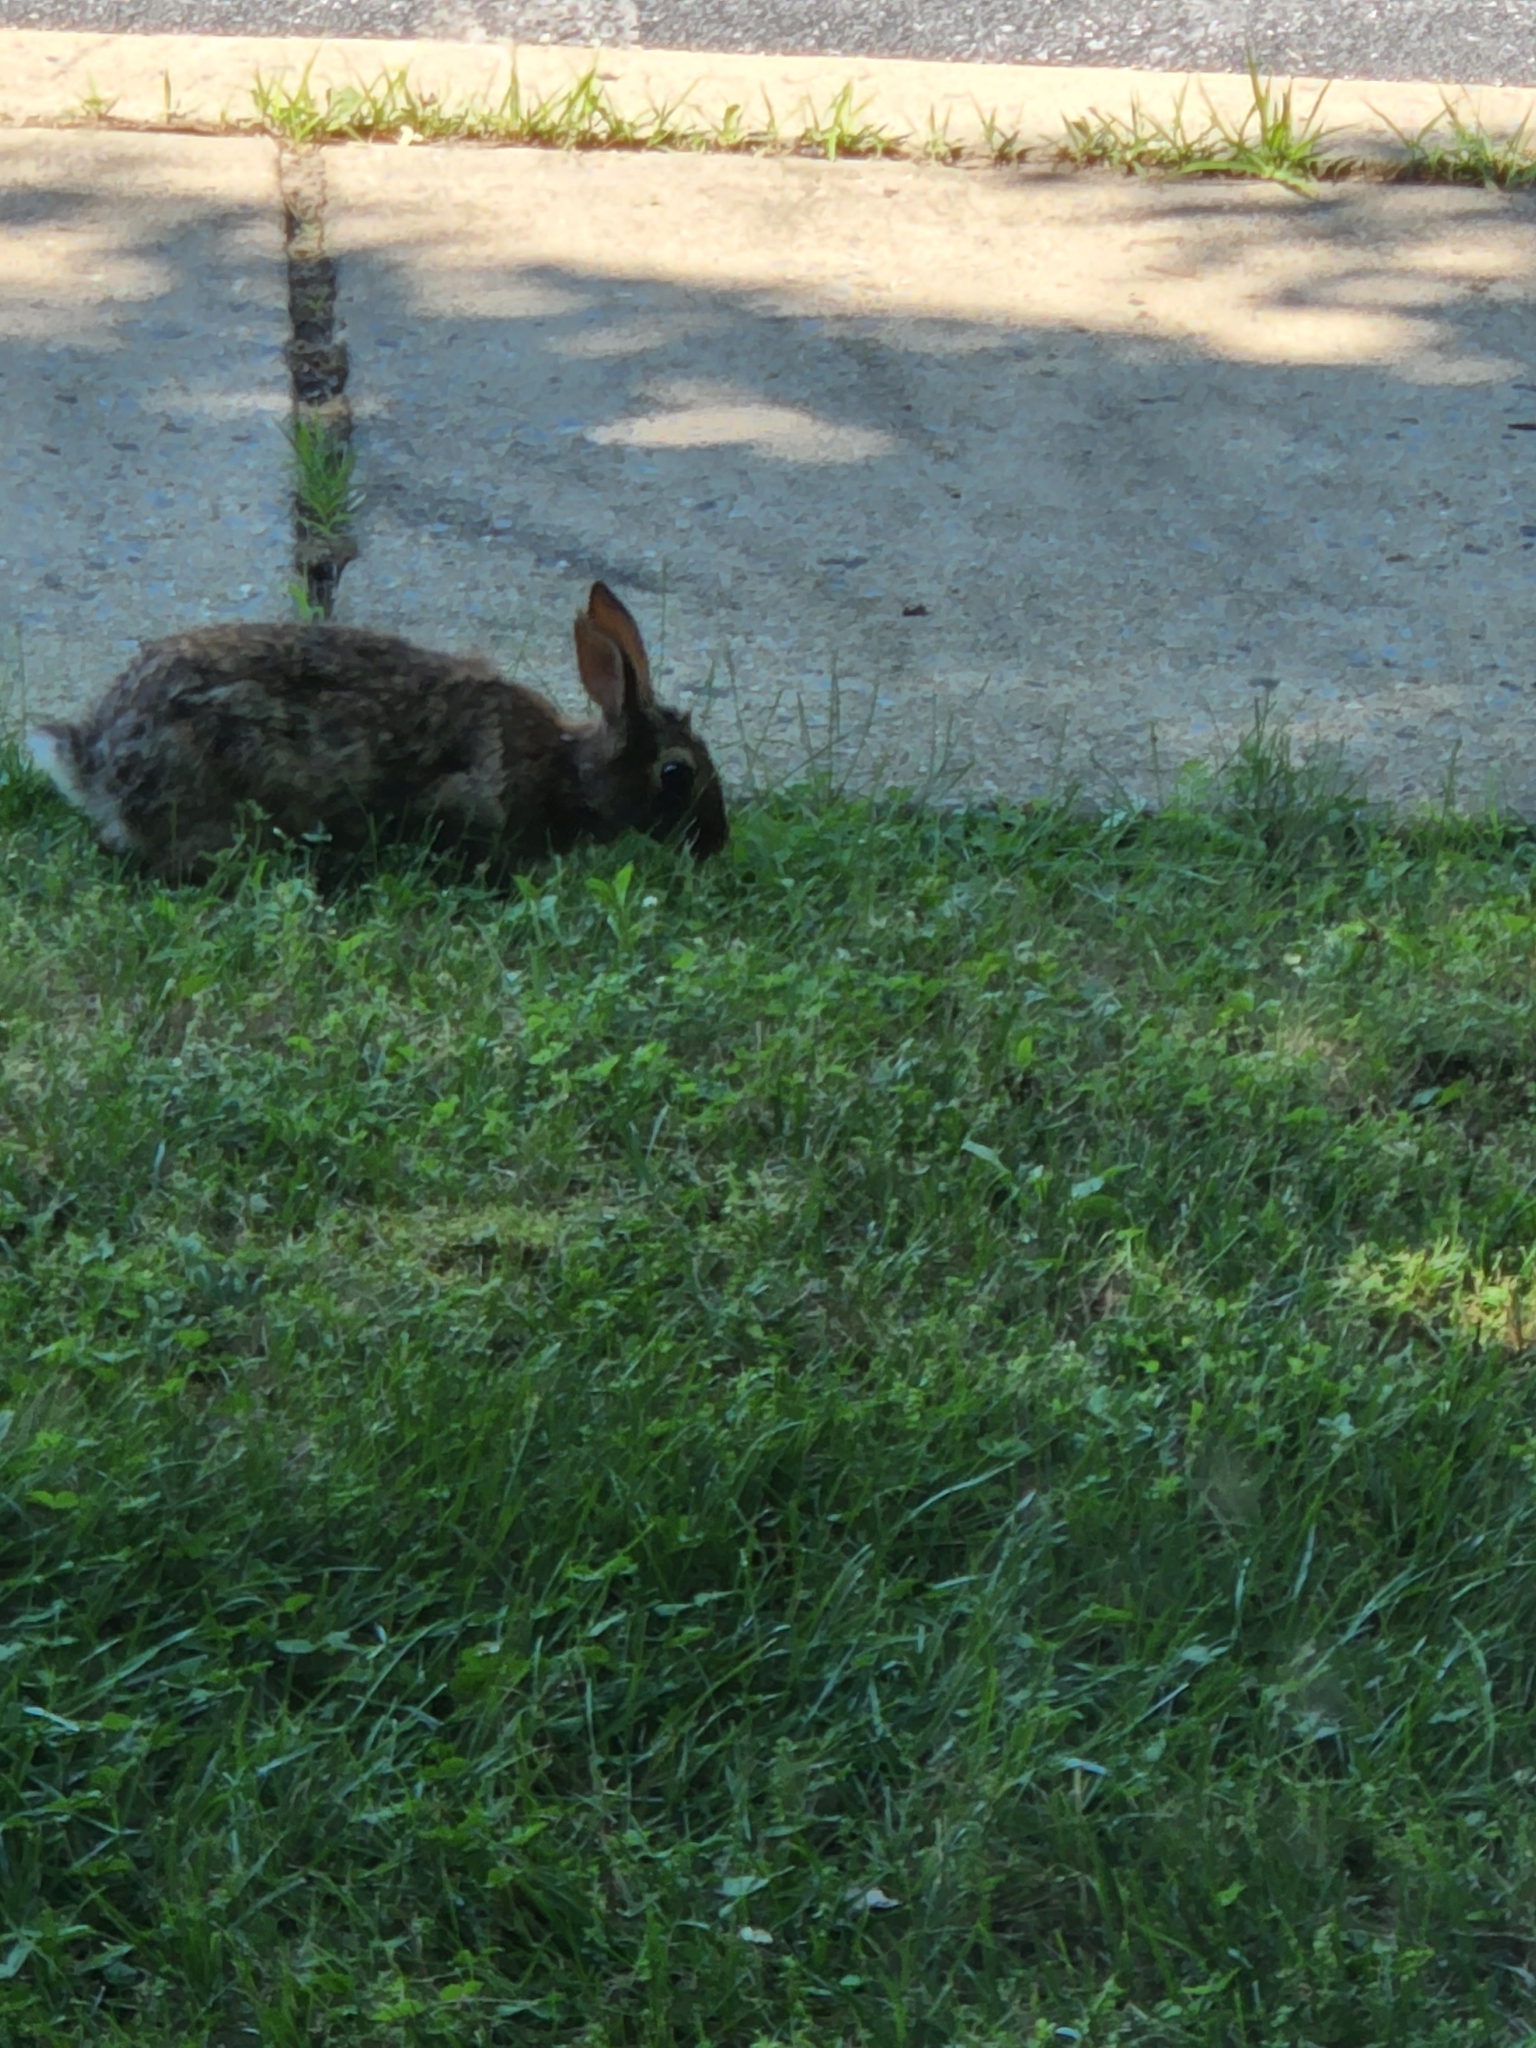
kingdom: Animalia
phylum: Chordata
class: Mammalia
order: Lagomorpha
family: Leporidae
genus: Sylvilagus
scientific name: Sylvilagus floridanus
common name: Eastern cottontail
